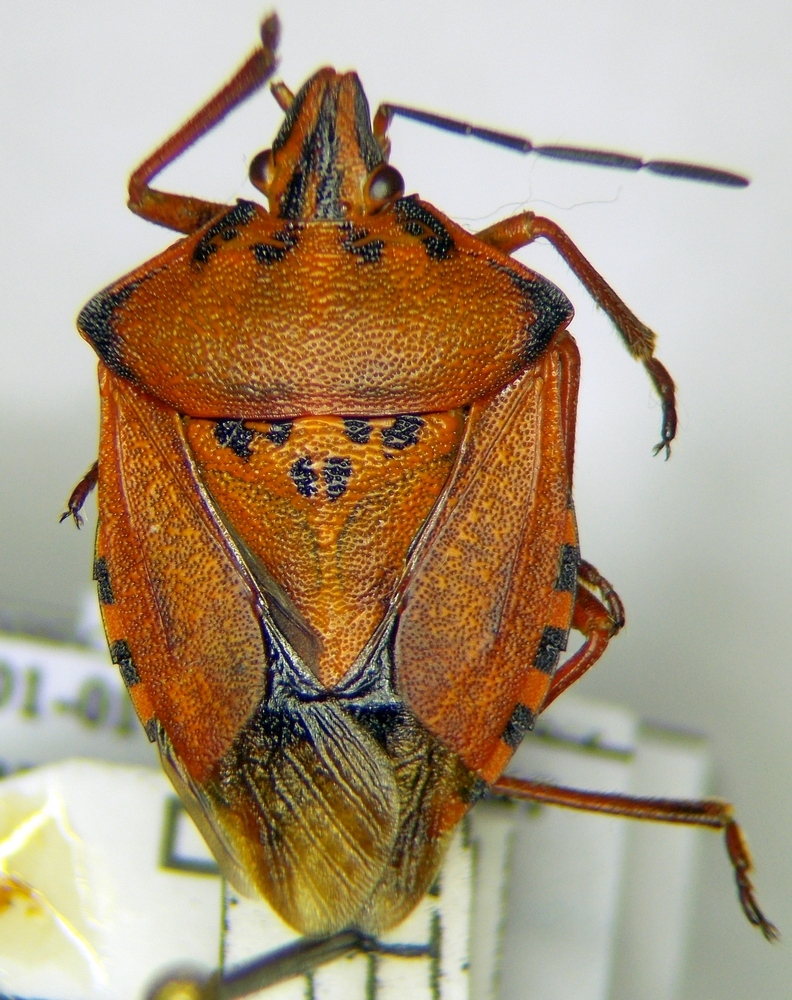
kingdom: Animalia
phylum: Arthropoda
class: Insecta
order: Hemiptera
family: Pentatomidae
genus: Carpocoris
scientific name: Carpocoris mediterraneus
